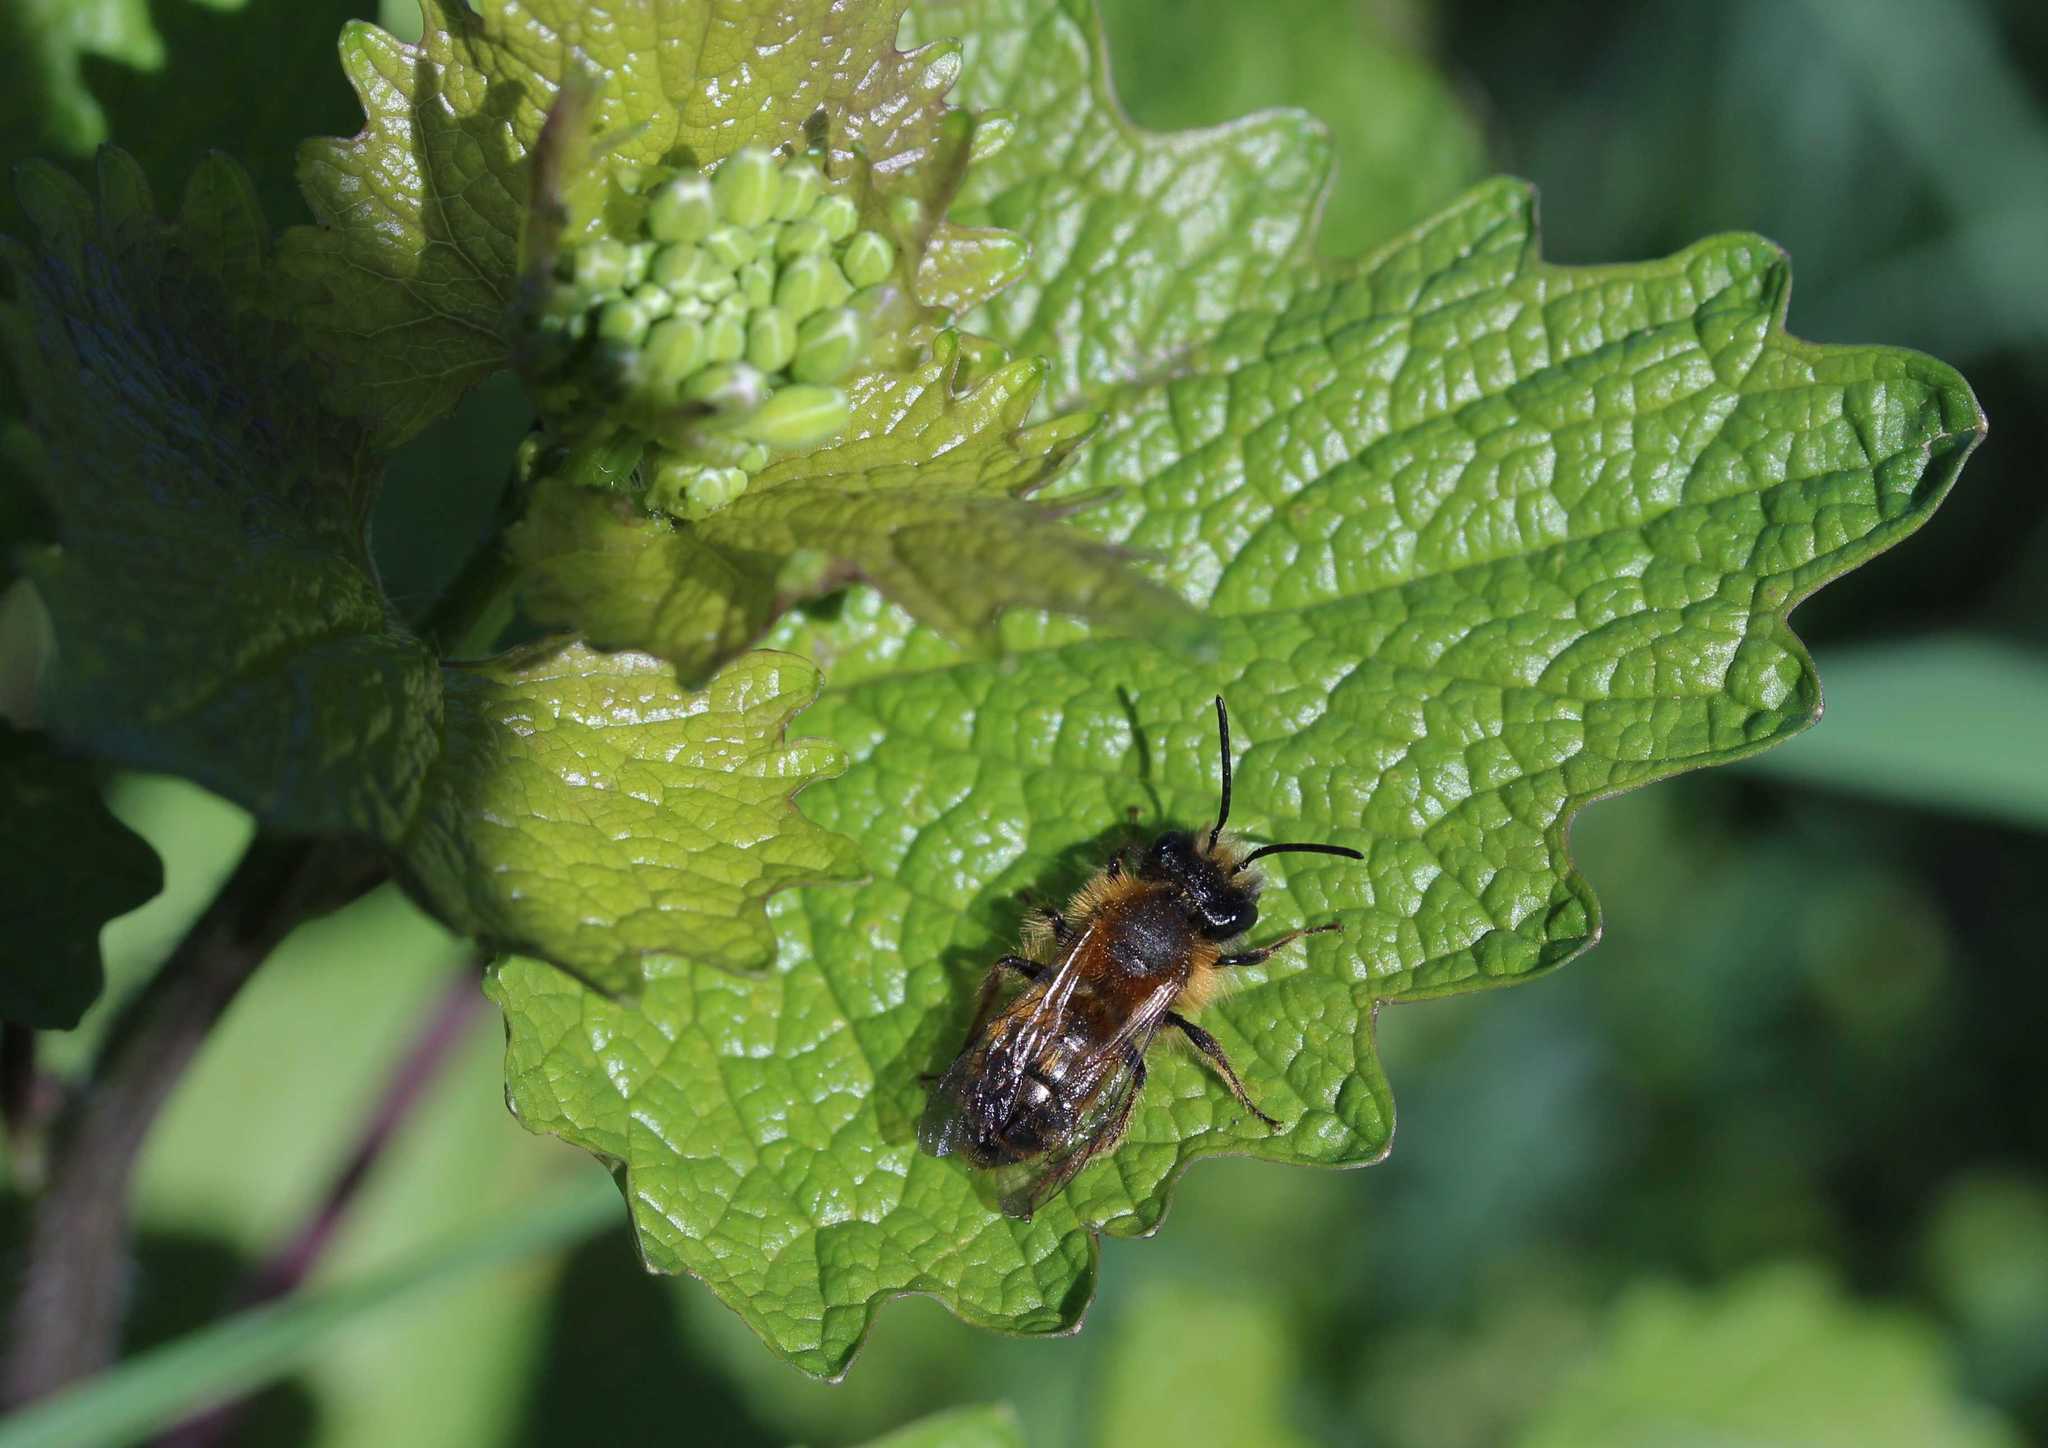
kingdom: Animalia
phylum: Arthropoda
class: Insecta
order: Hymenoptera
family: Andrenidae
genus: Andrena
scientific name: Andrena
